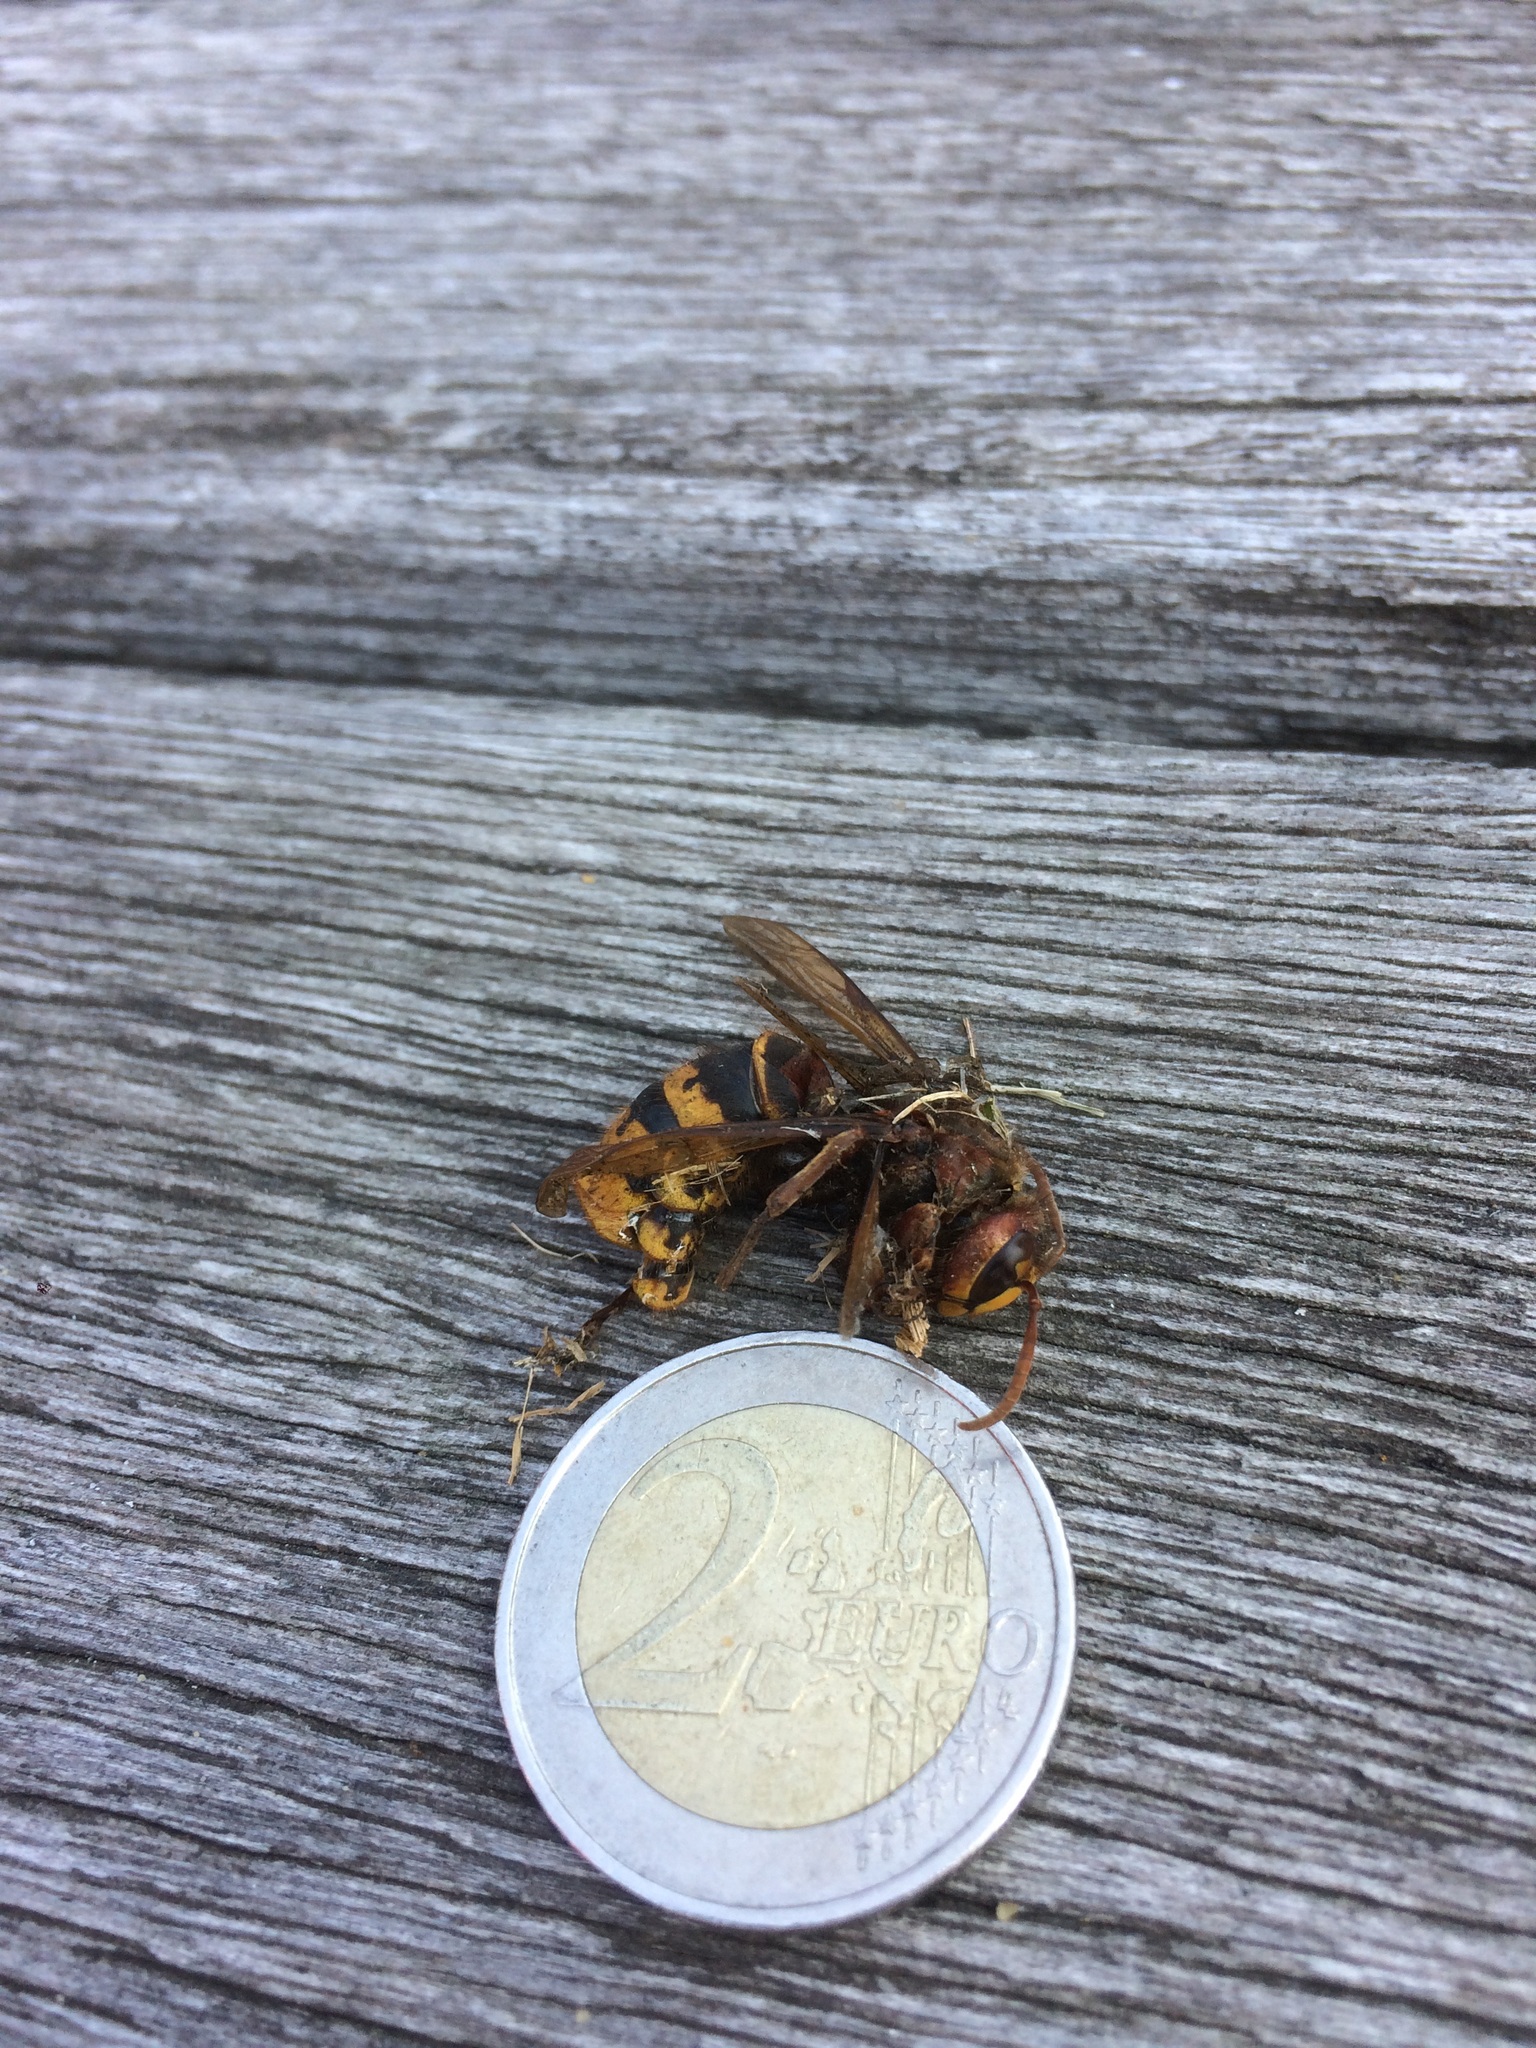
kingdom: Animalia
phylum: Arthropoda
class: Insecta
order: Hymenoptera
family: Vespidae
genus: Vespa
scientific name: Vespa crabro
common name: Hornet
